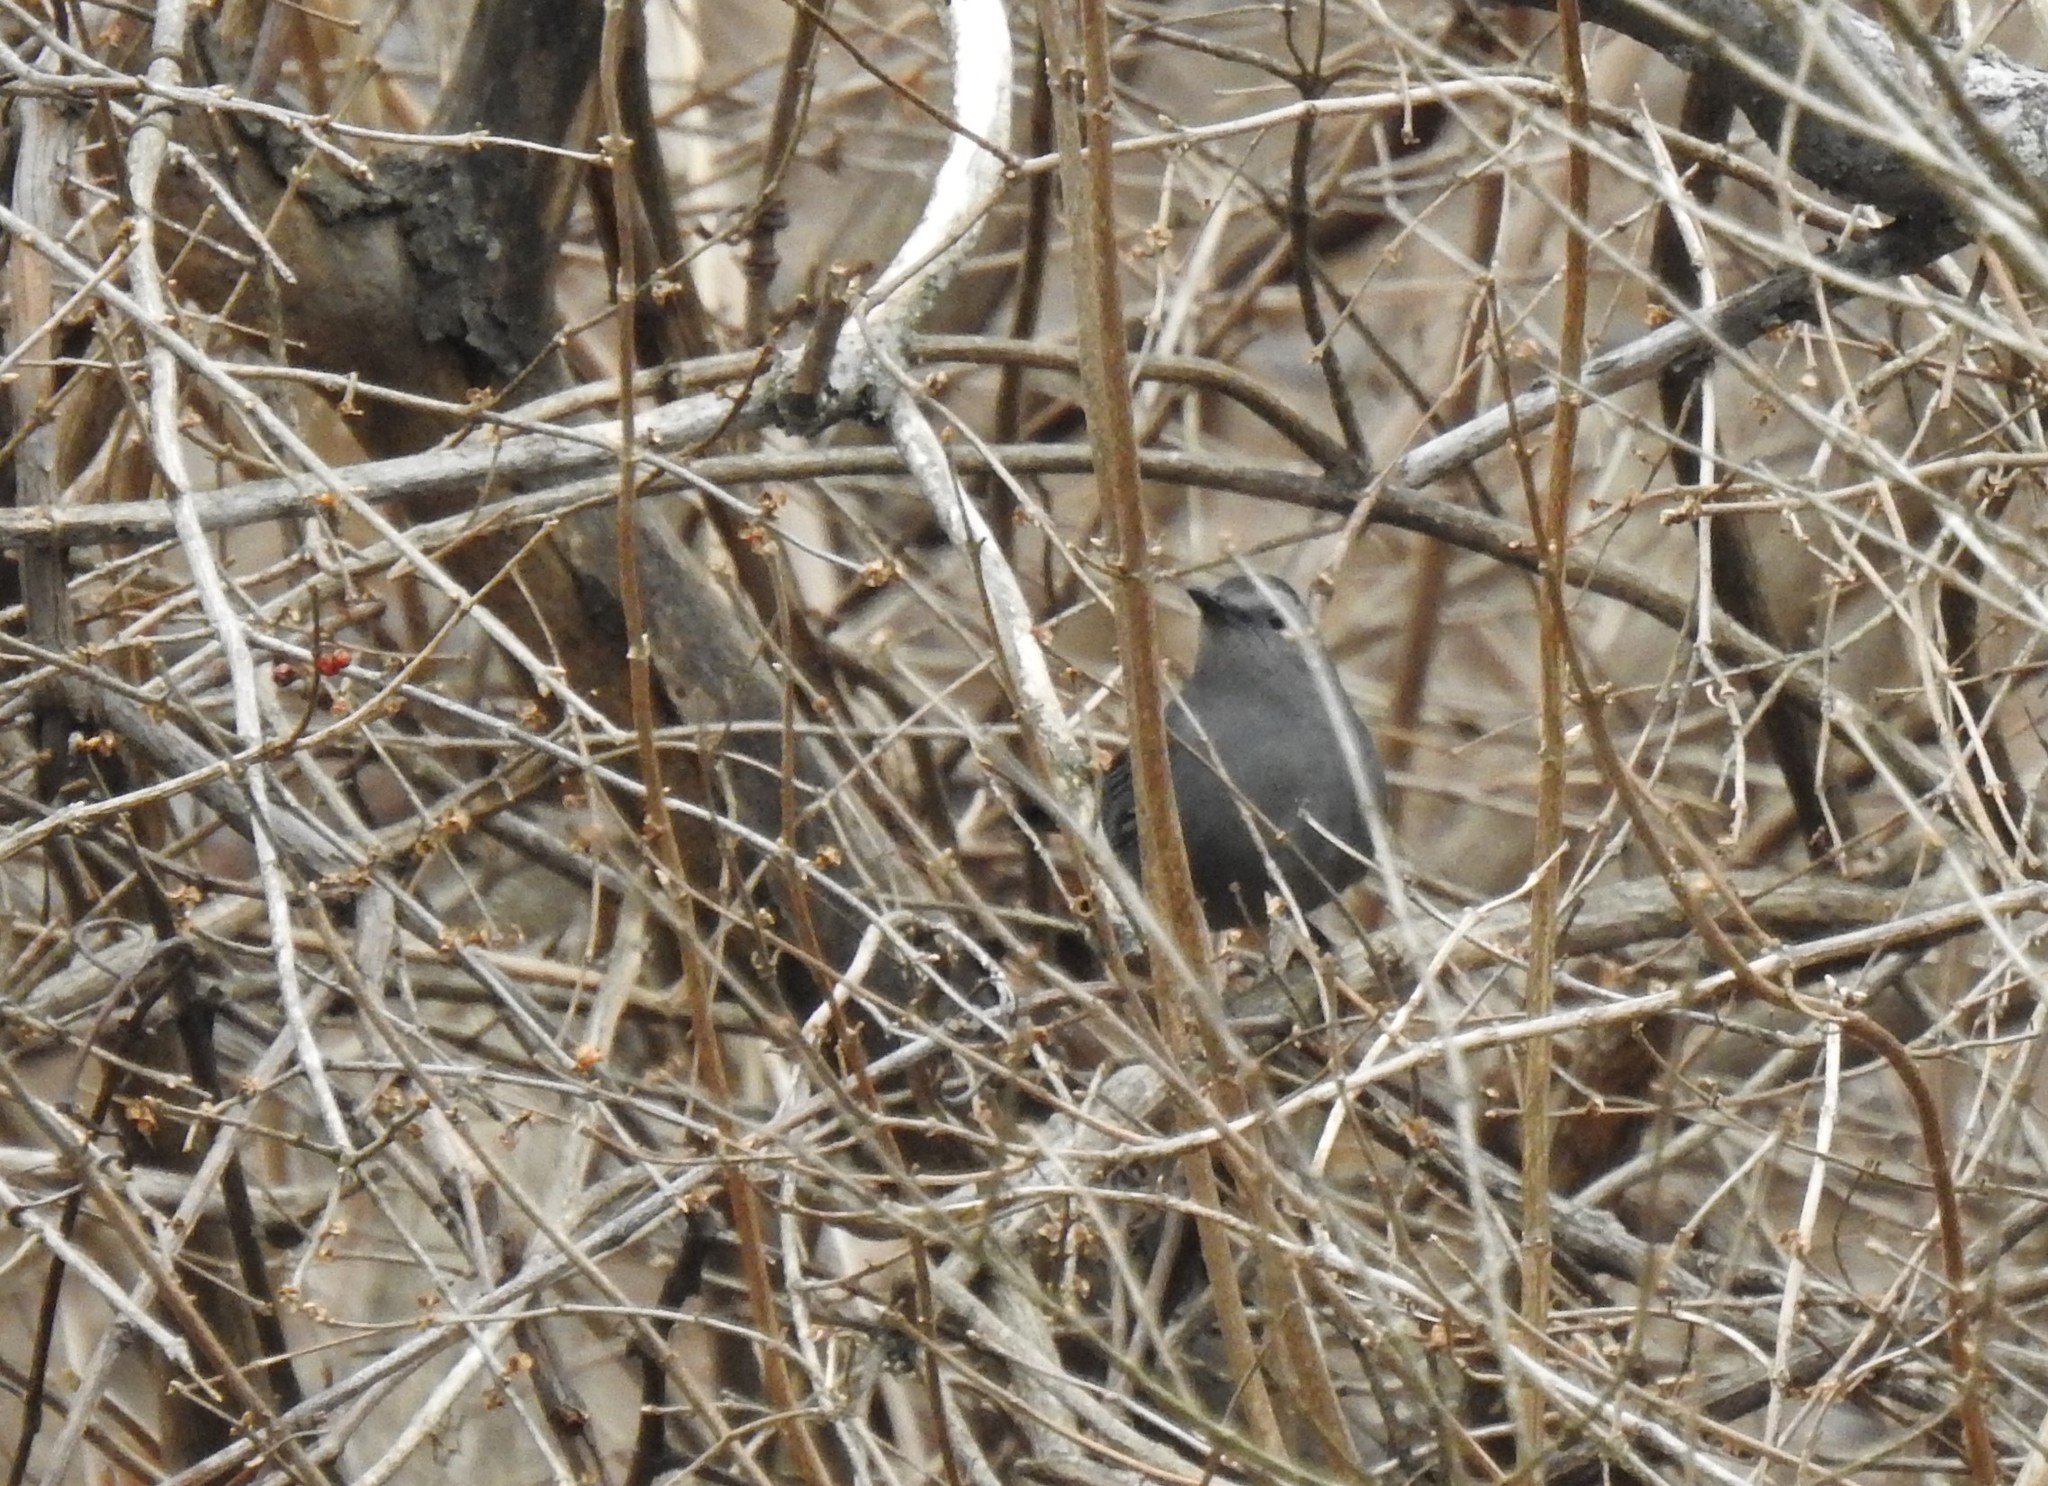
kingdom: Animalia
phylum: Chordata
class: Aves
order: Passeriformes
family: Mimidae
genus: Dumetella
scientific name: Dumetella carolinensis
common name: Gray catbird
